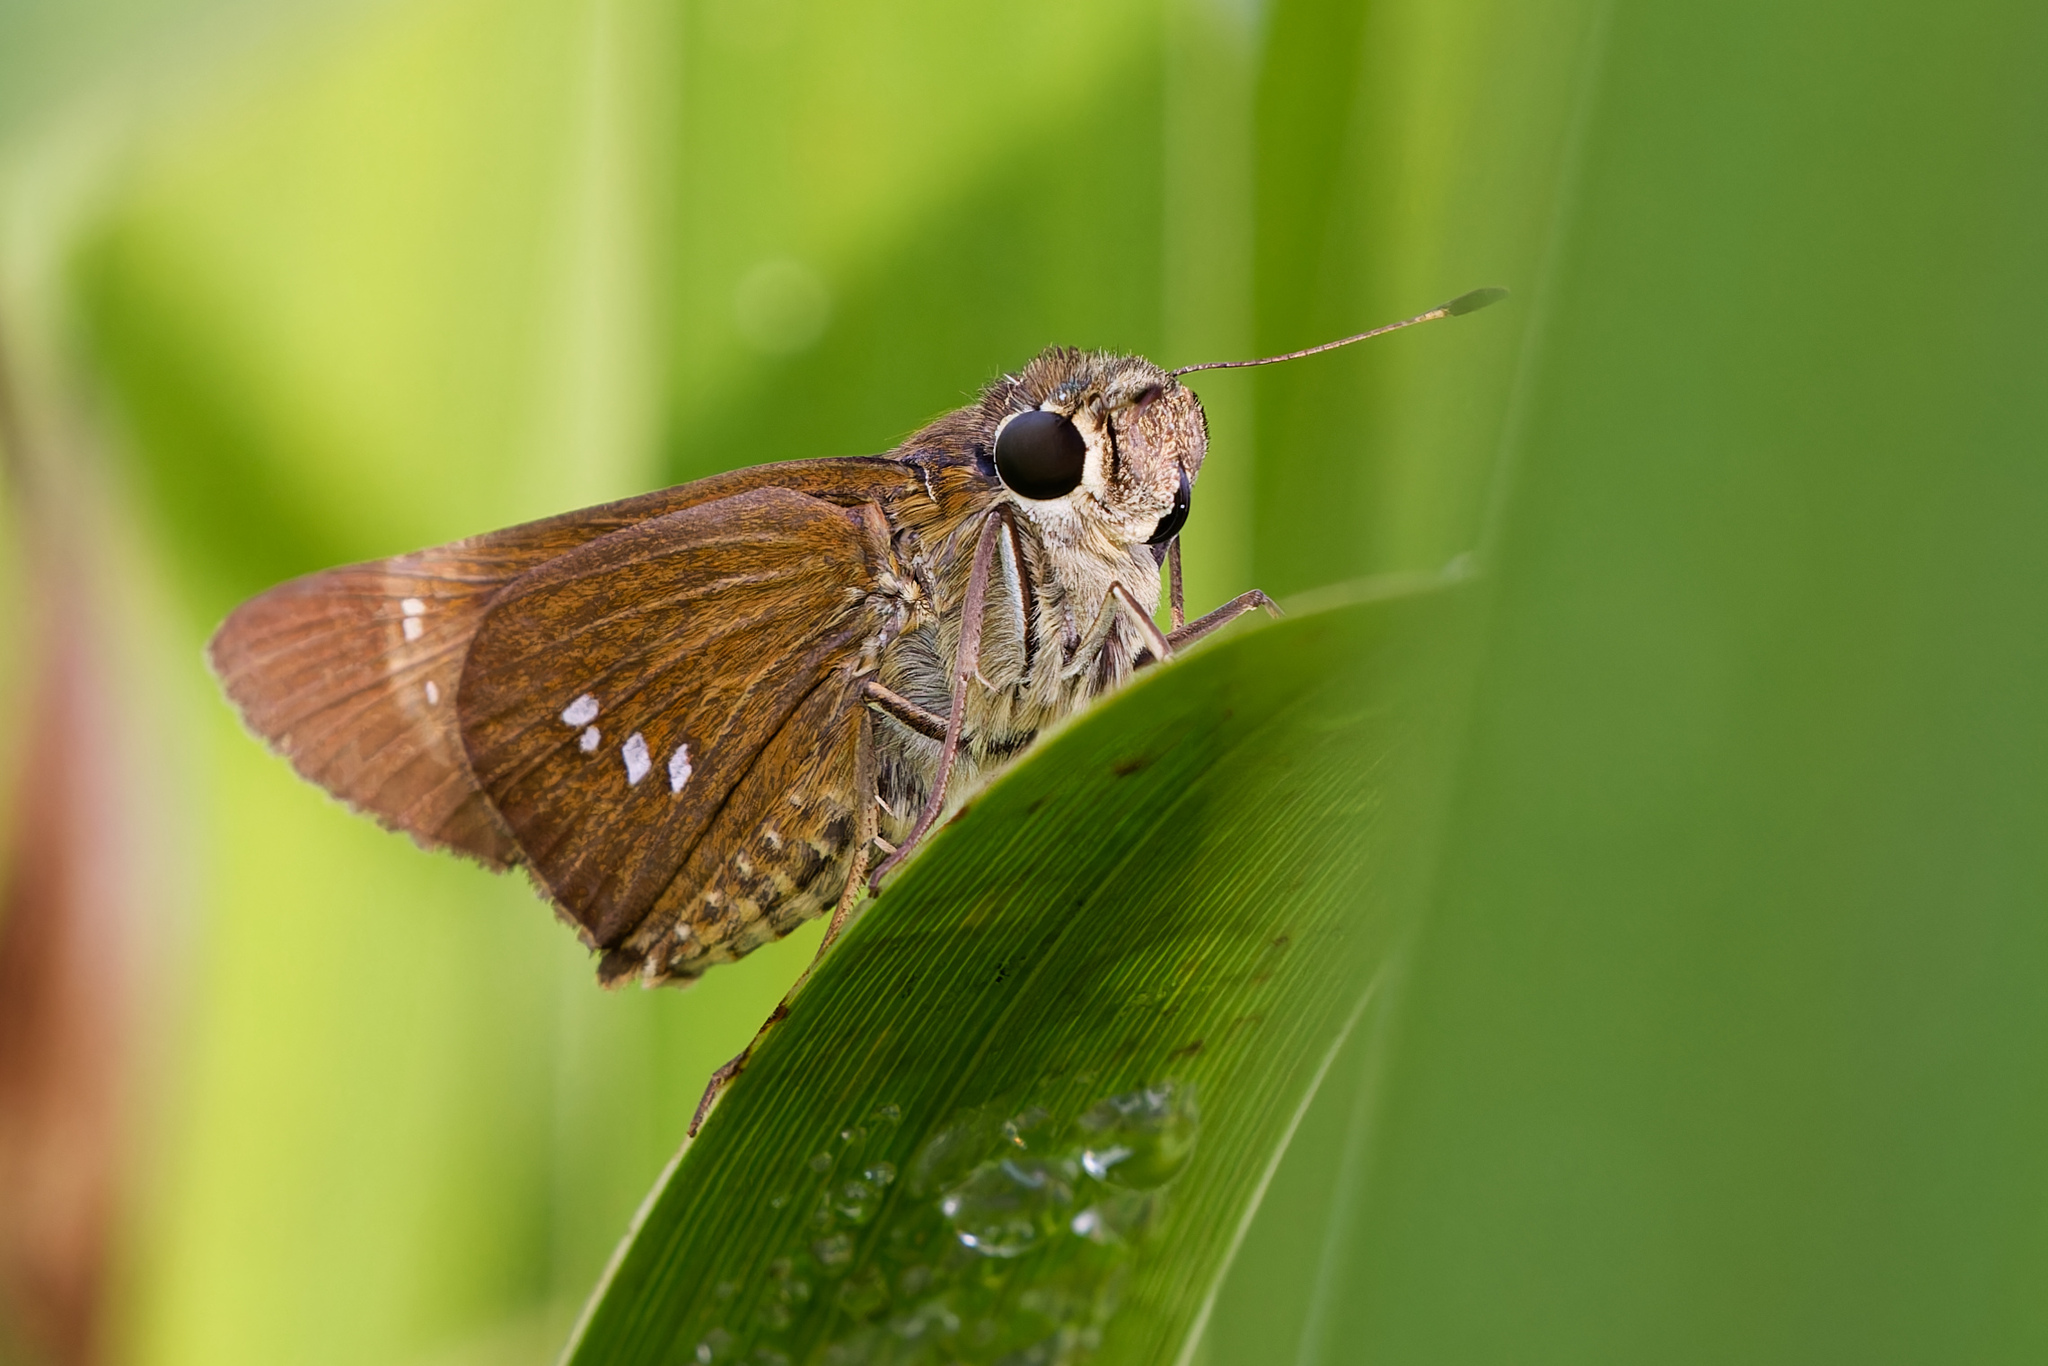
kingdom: Animalia
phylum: Arthropoda
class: Insecta
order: Lepidoptera
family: Hesperiidae
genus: Calpodes
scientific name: Calpodes ethlius
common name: Brazilian skipper
